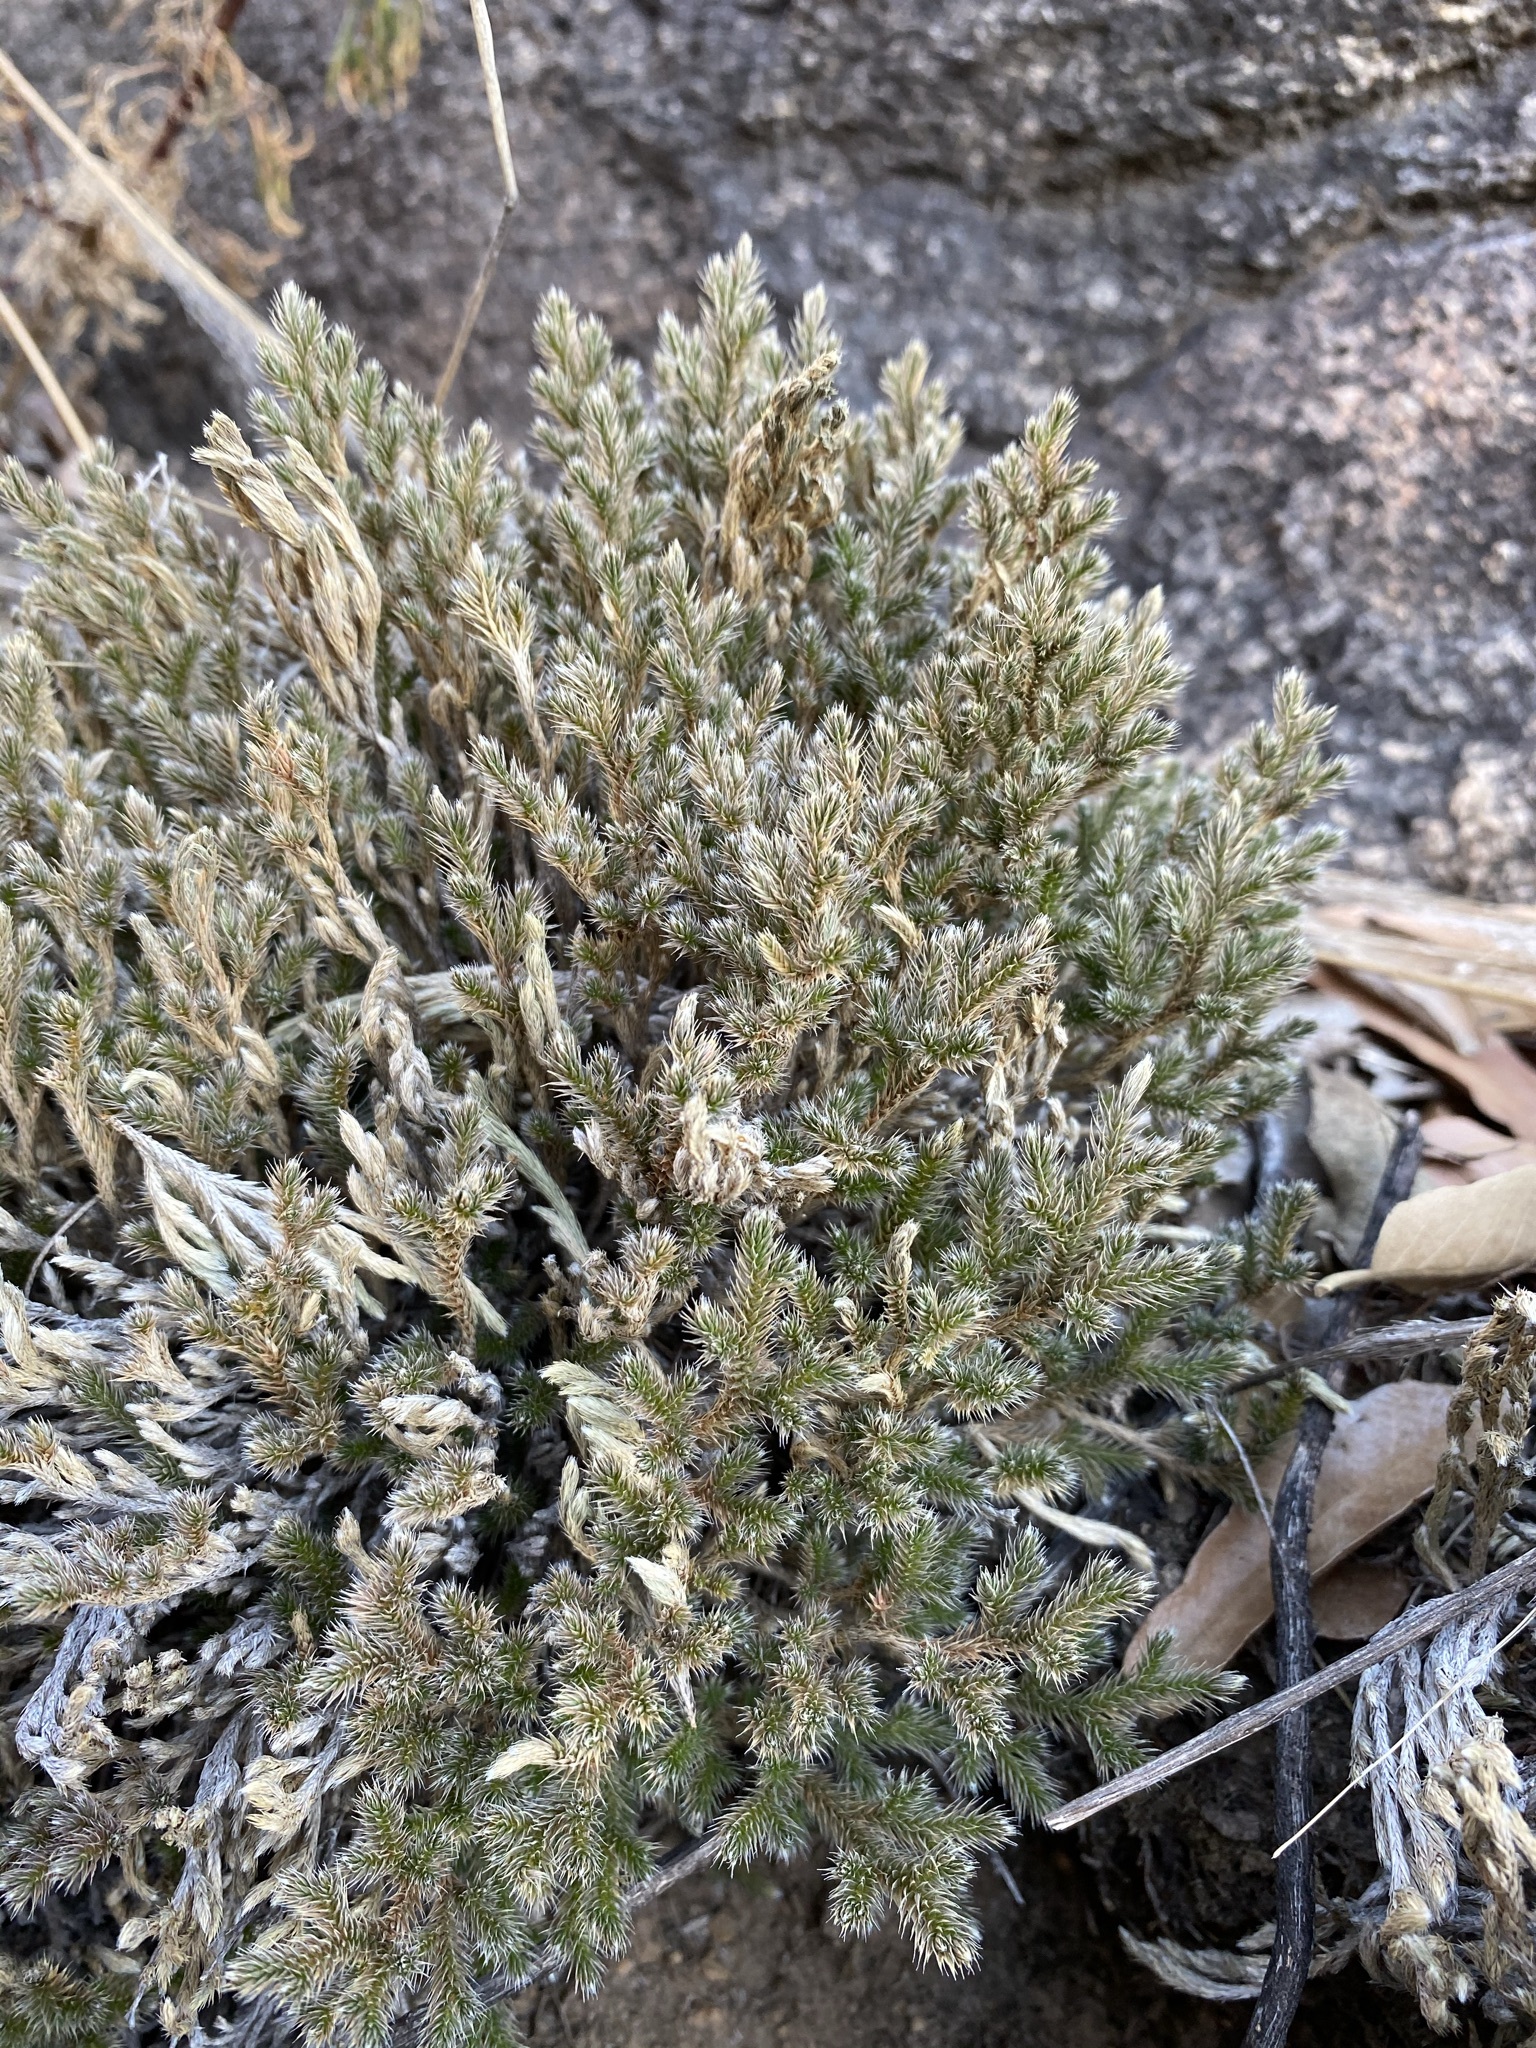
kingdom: Plantae
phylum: Tracheophyta
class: Lycopodiopsida
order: Selaginellales
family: Selaginellaceae
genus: Selaginella
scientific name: Selaginella rupincola
